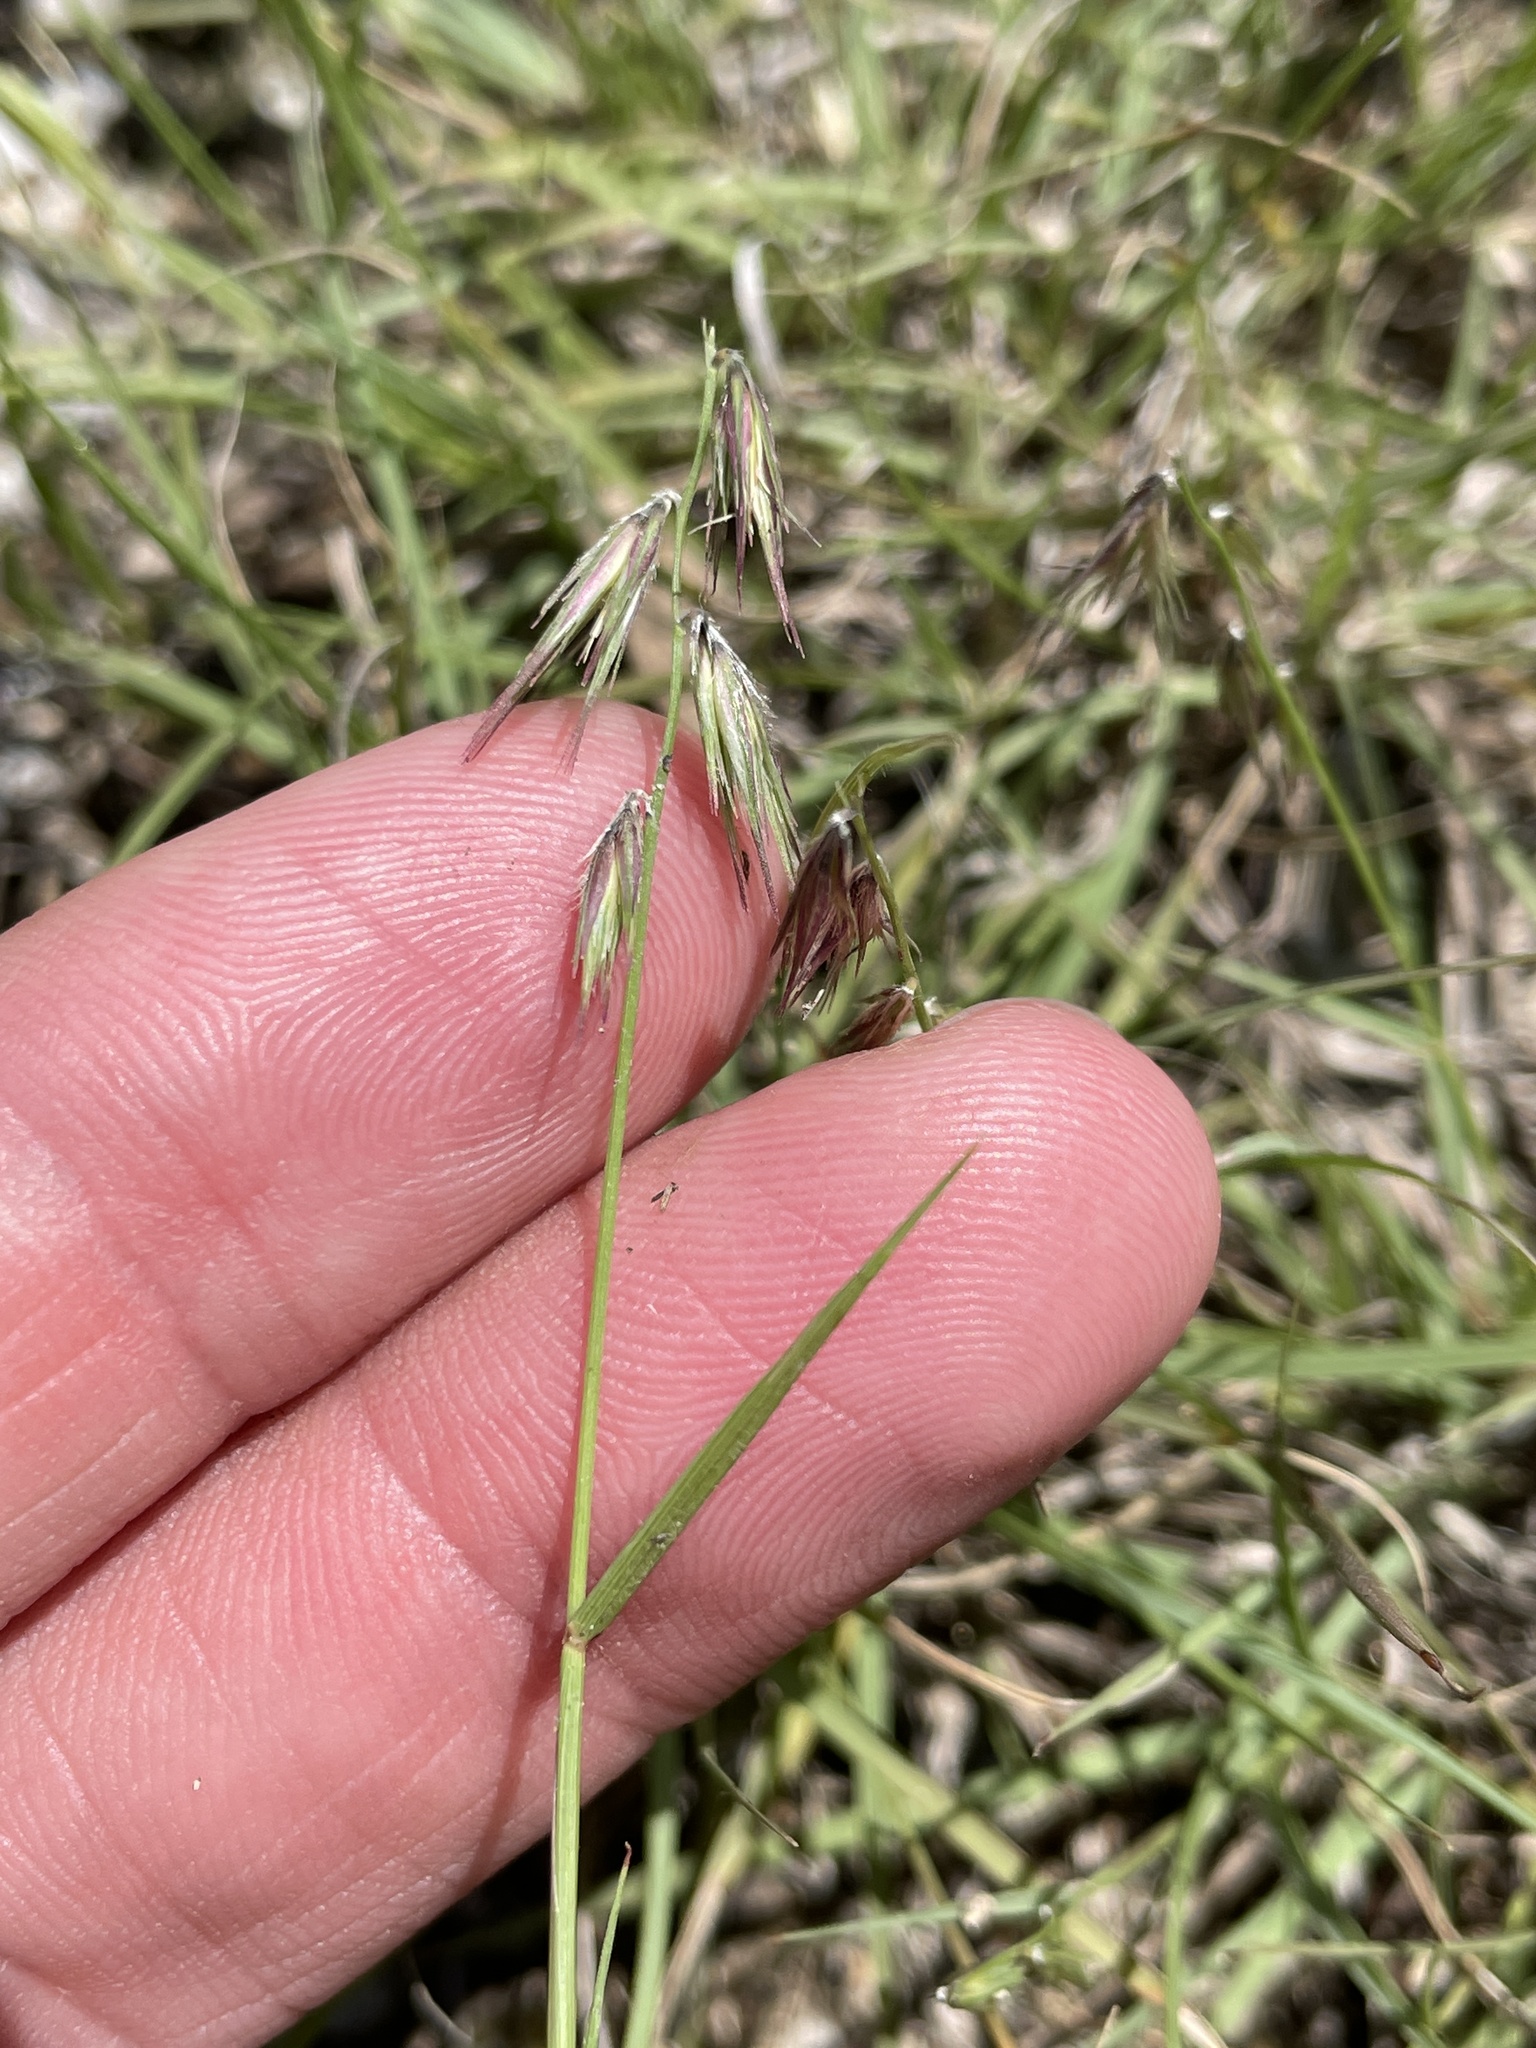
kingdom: Plantae
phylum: Tracheophyta
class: Liliopsida
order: Poales
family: Poaceae
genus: Bouteloua
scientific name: Bouteloua rigidiseta
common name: Texas grama
